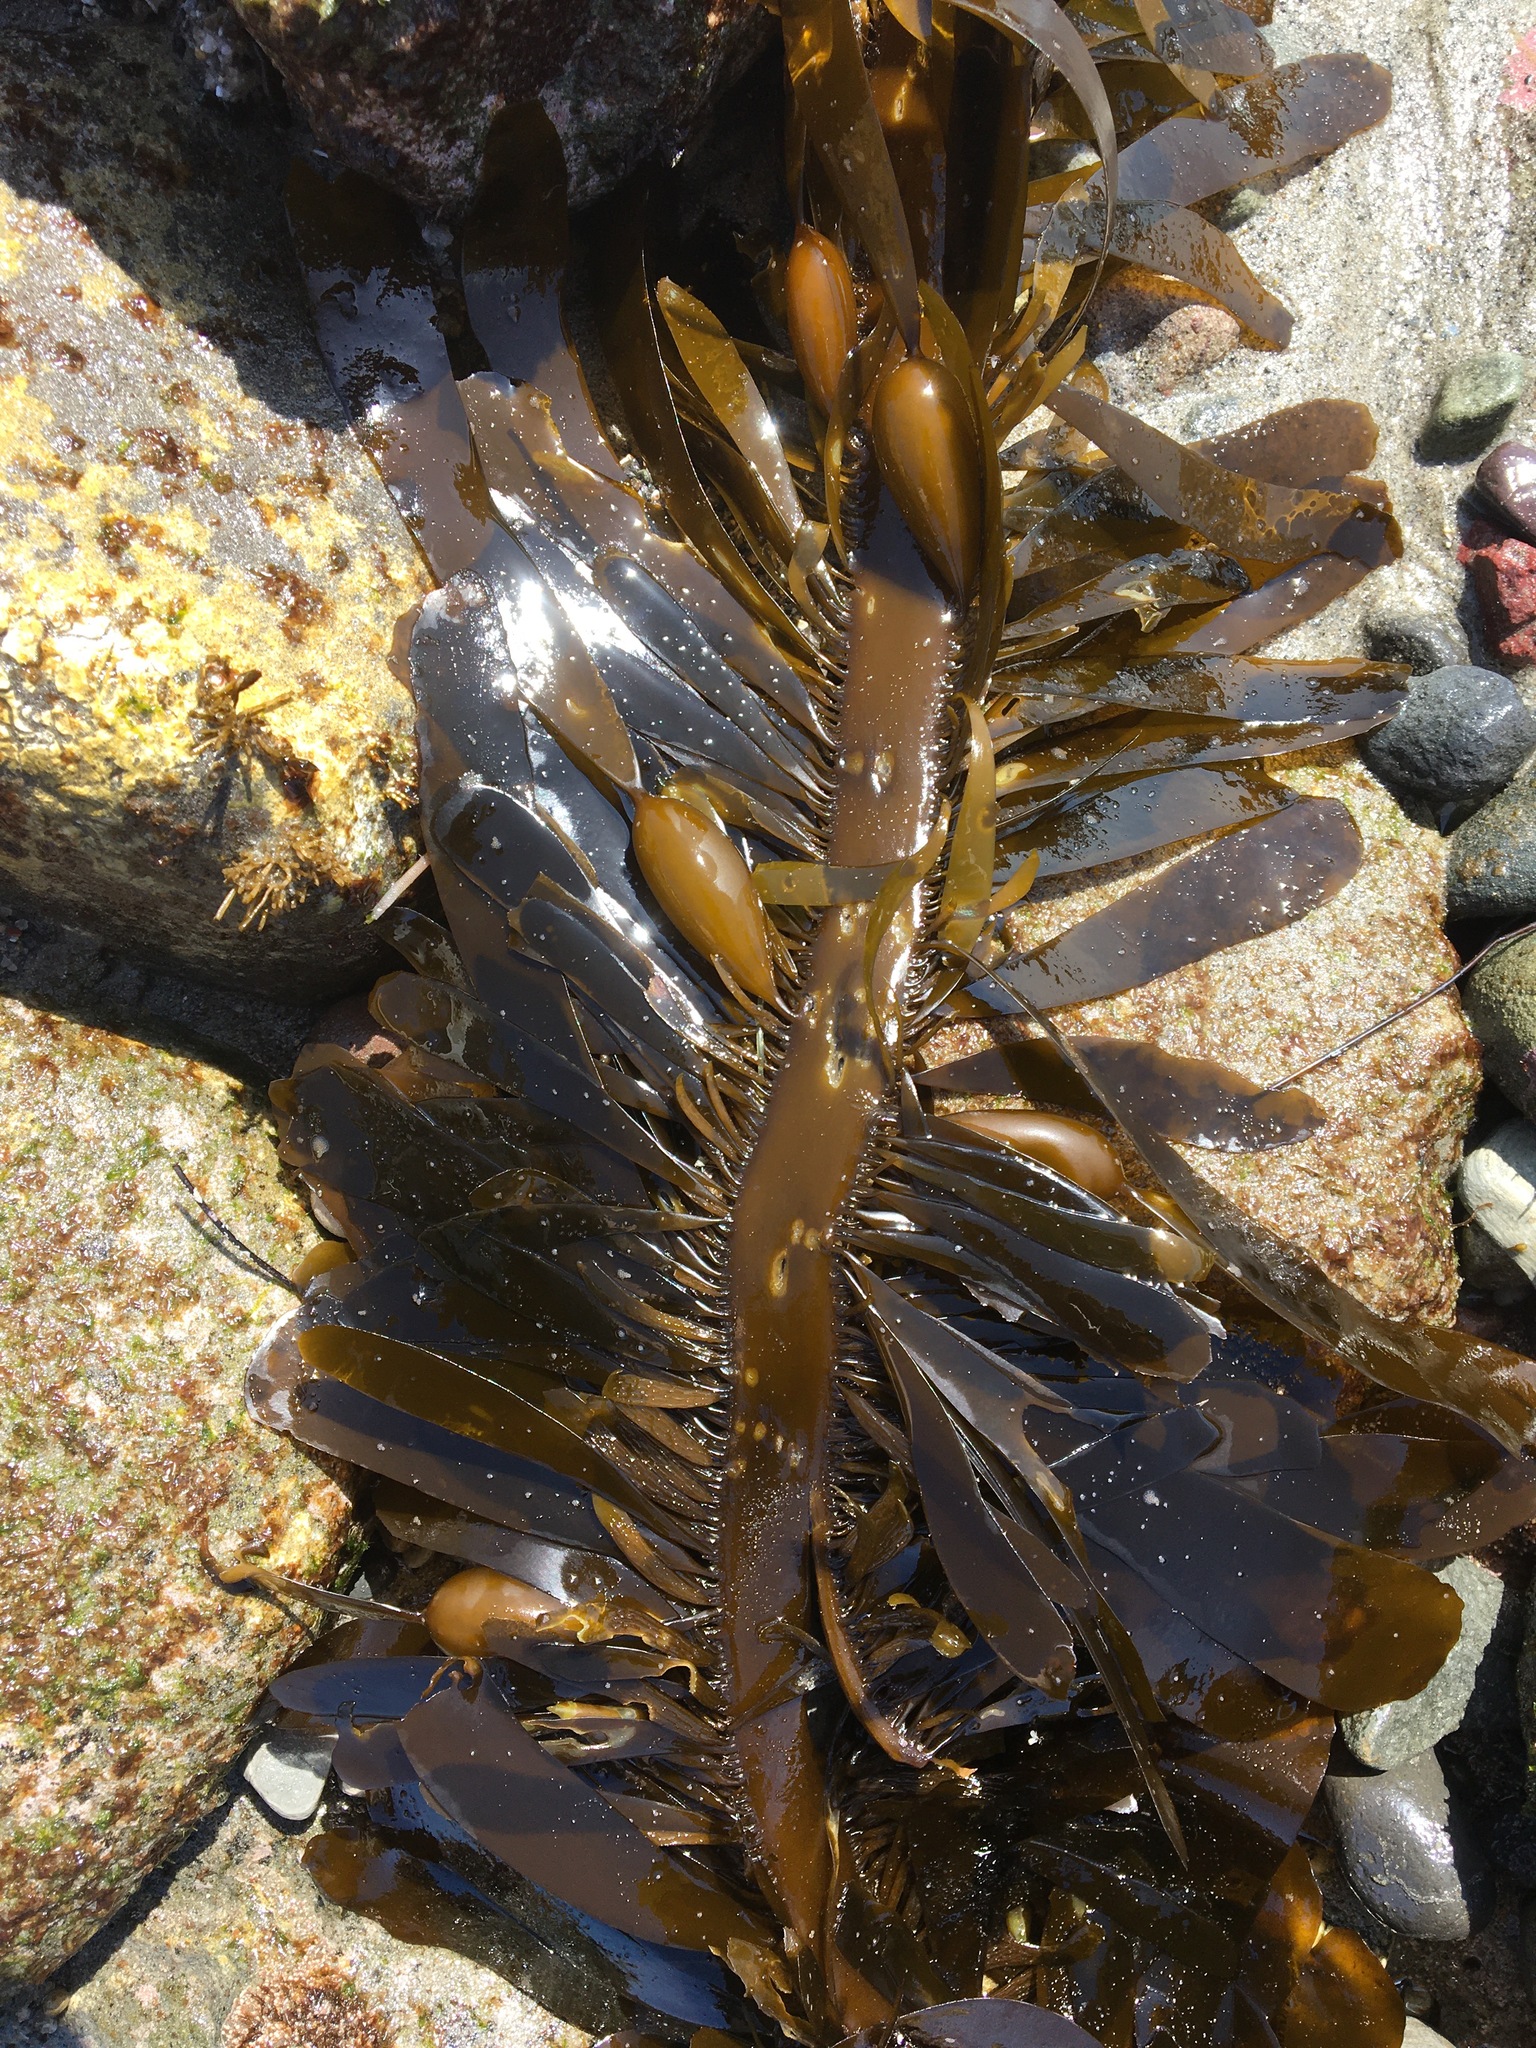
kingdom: Chromista
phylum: Ochrophyta
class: Phaeophyceae
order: Laminariales
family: Lessoniaceae
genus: Egregia
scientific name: Egregia menziesii
